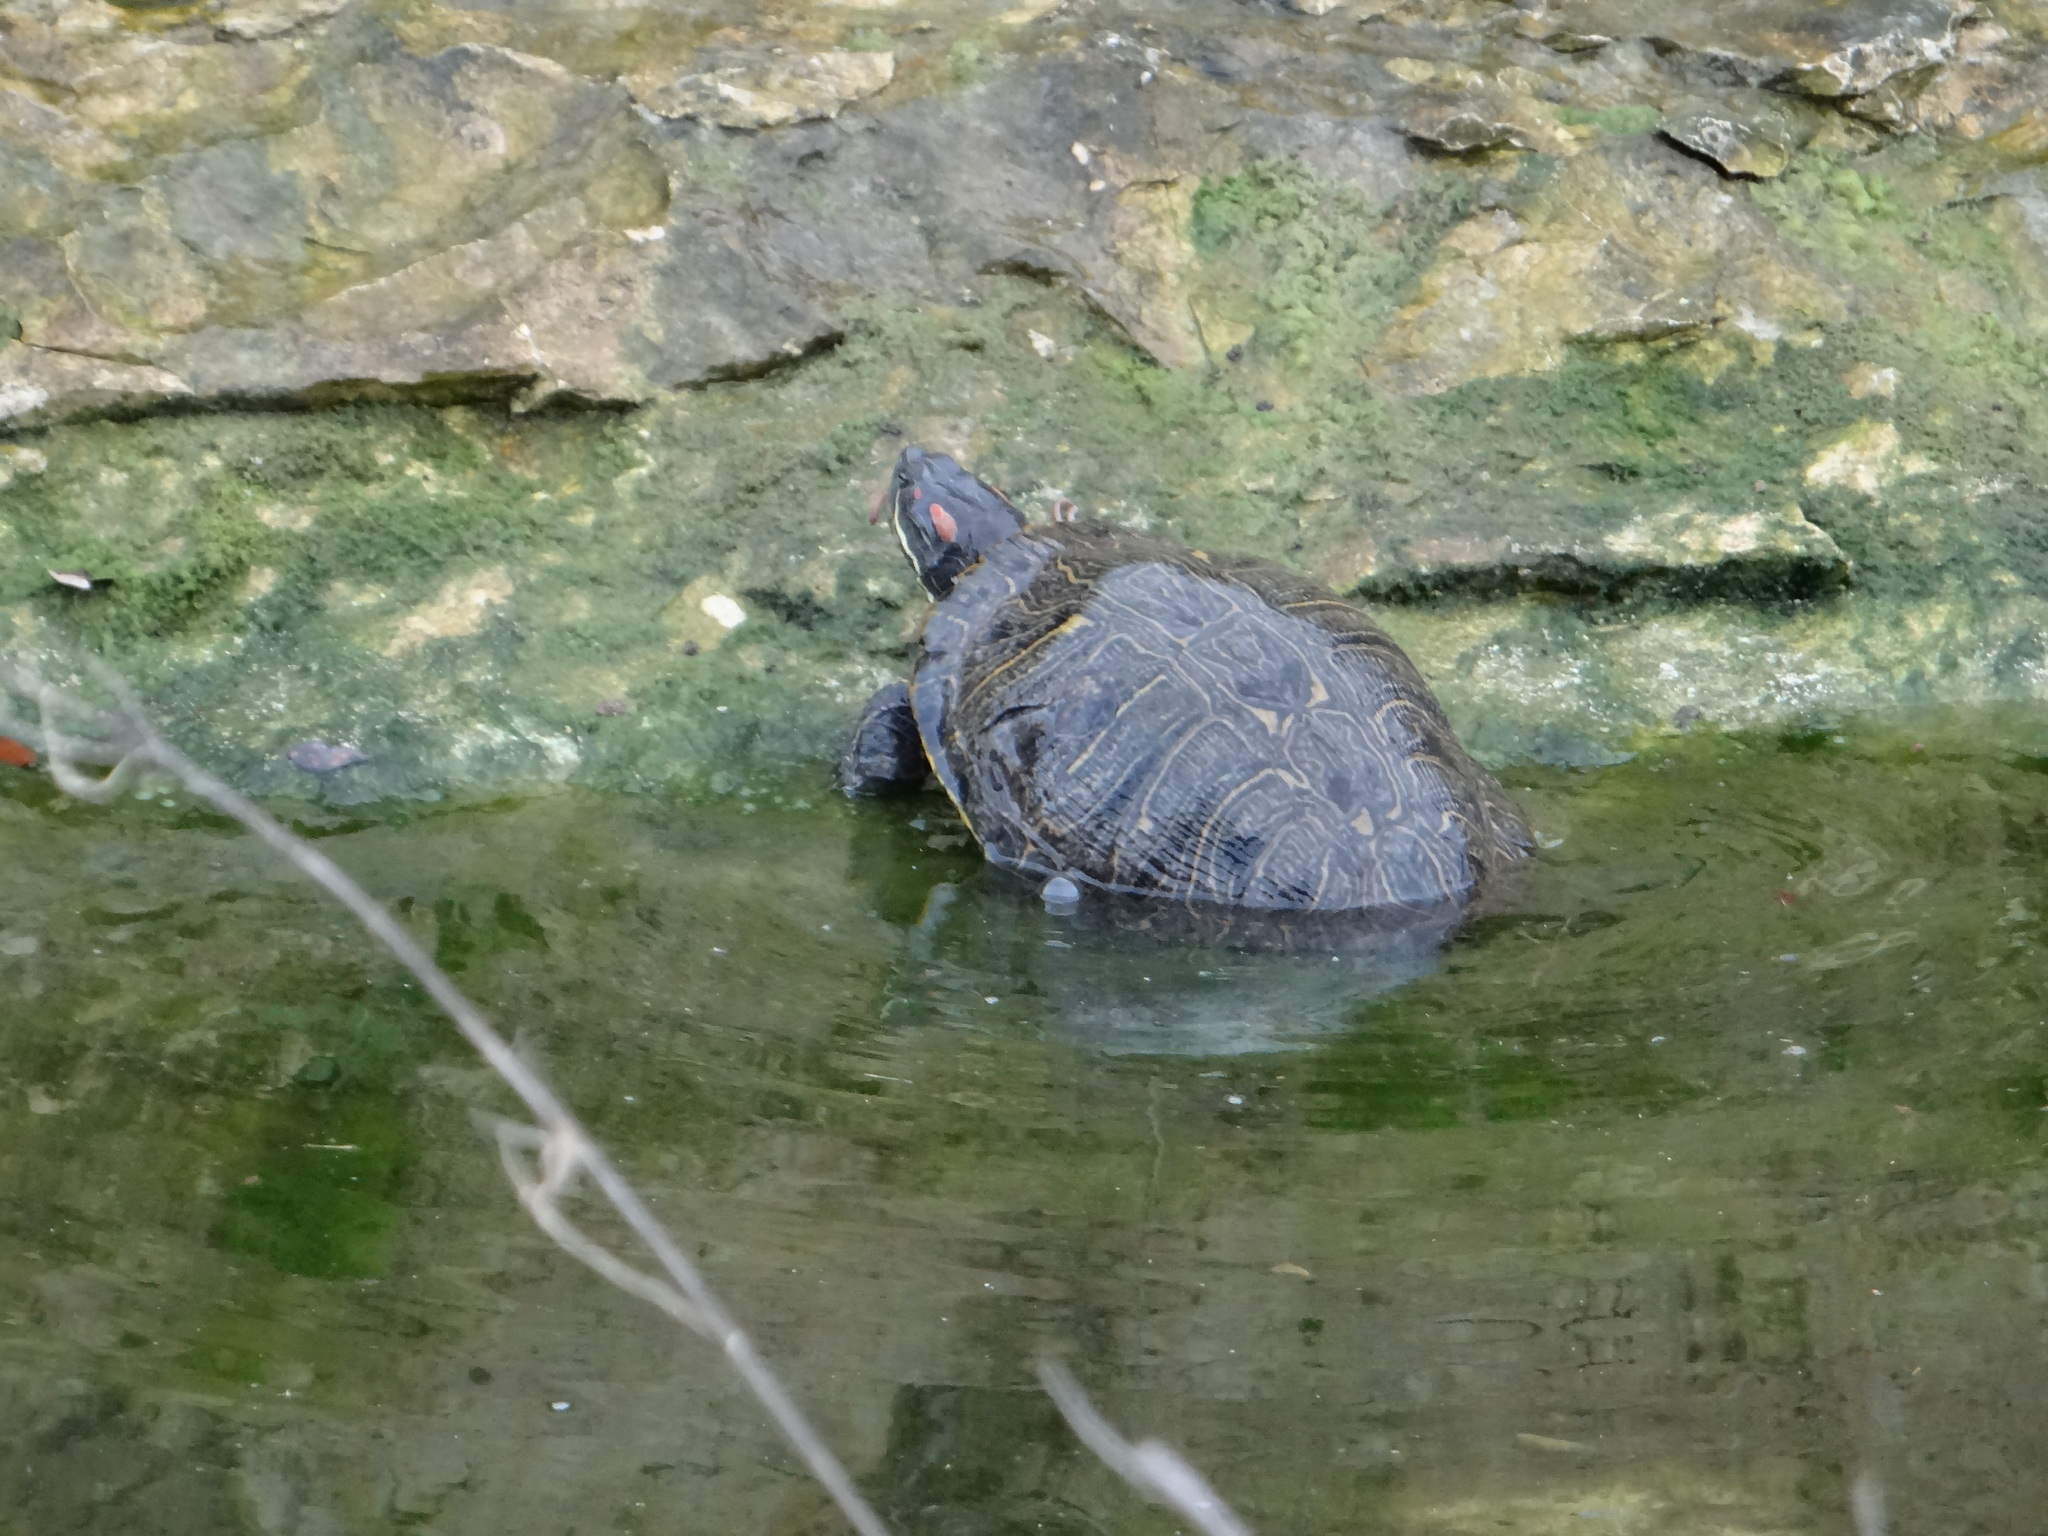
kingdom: Animalia
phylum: Chordata
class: Testudines
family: Emydidae
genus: Trachemys
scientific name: Trachemys scripta
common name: Slider
